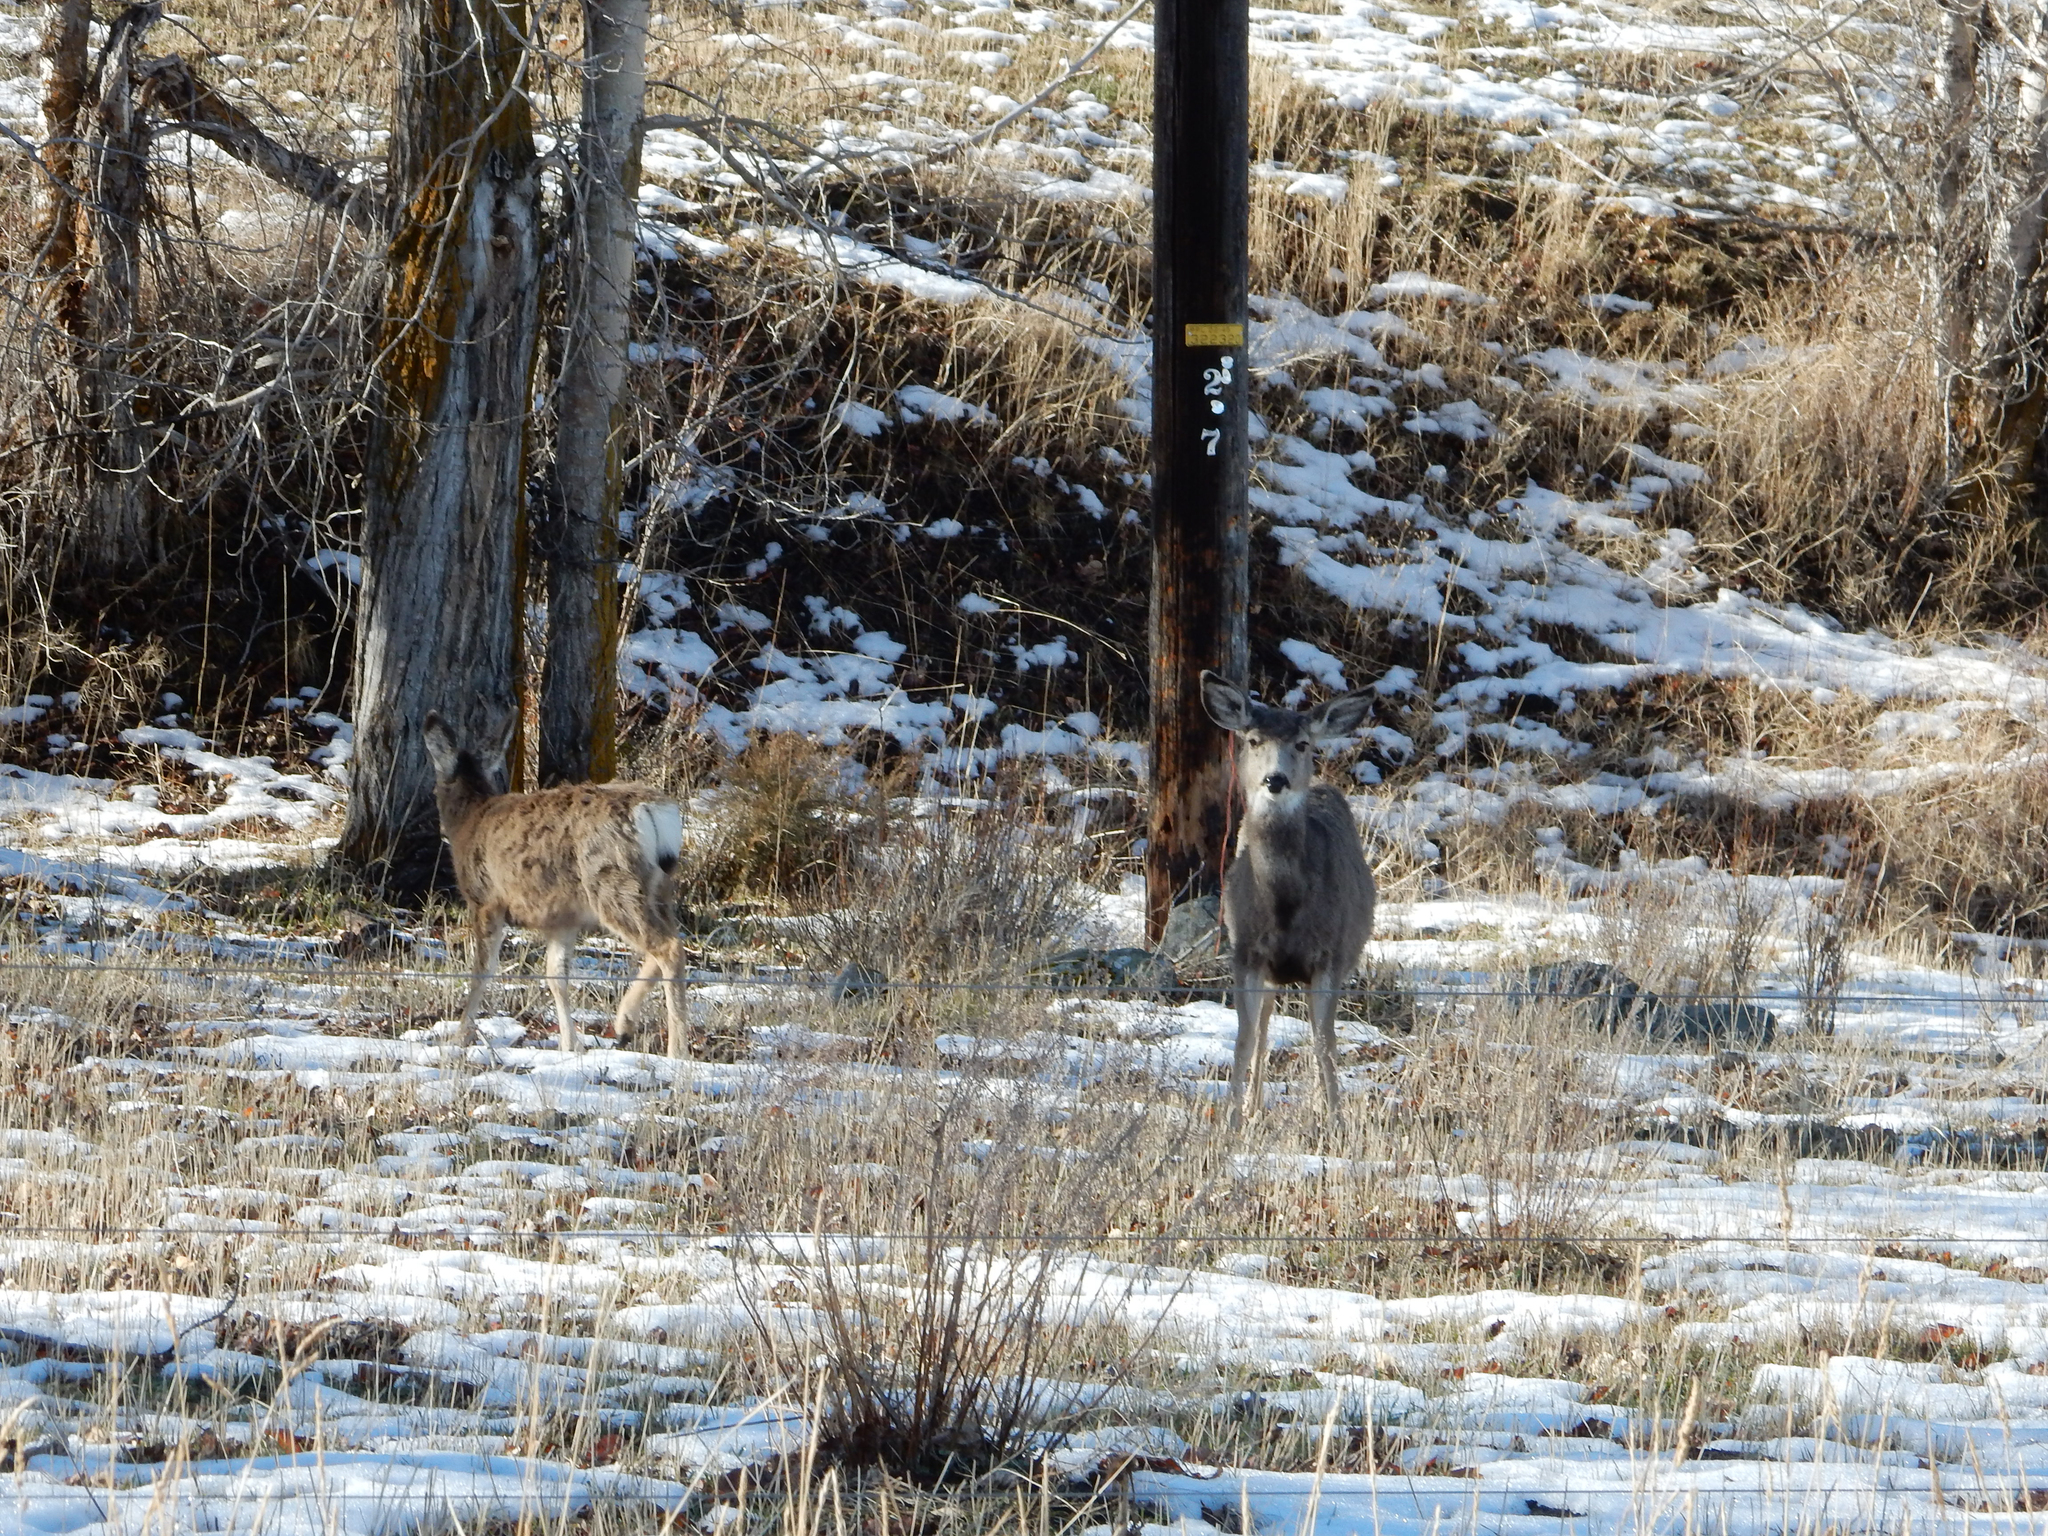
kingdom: Animalia
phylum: Chordata
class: Mammalia
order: Artiodactyla
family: Cervidae
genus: Odocoileus
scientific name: Odocoileus hemionus
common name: Mule deer
